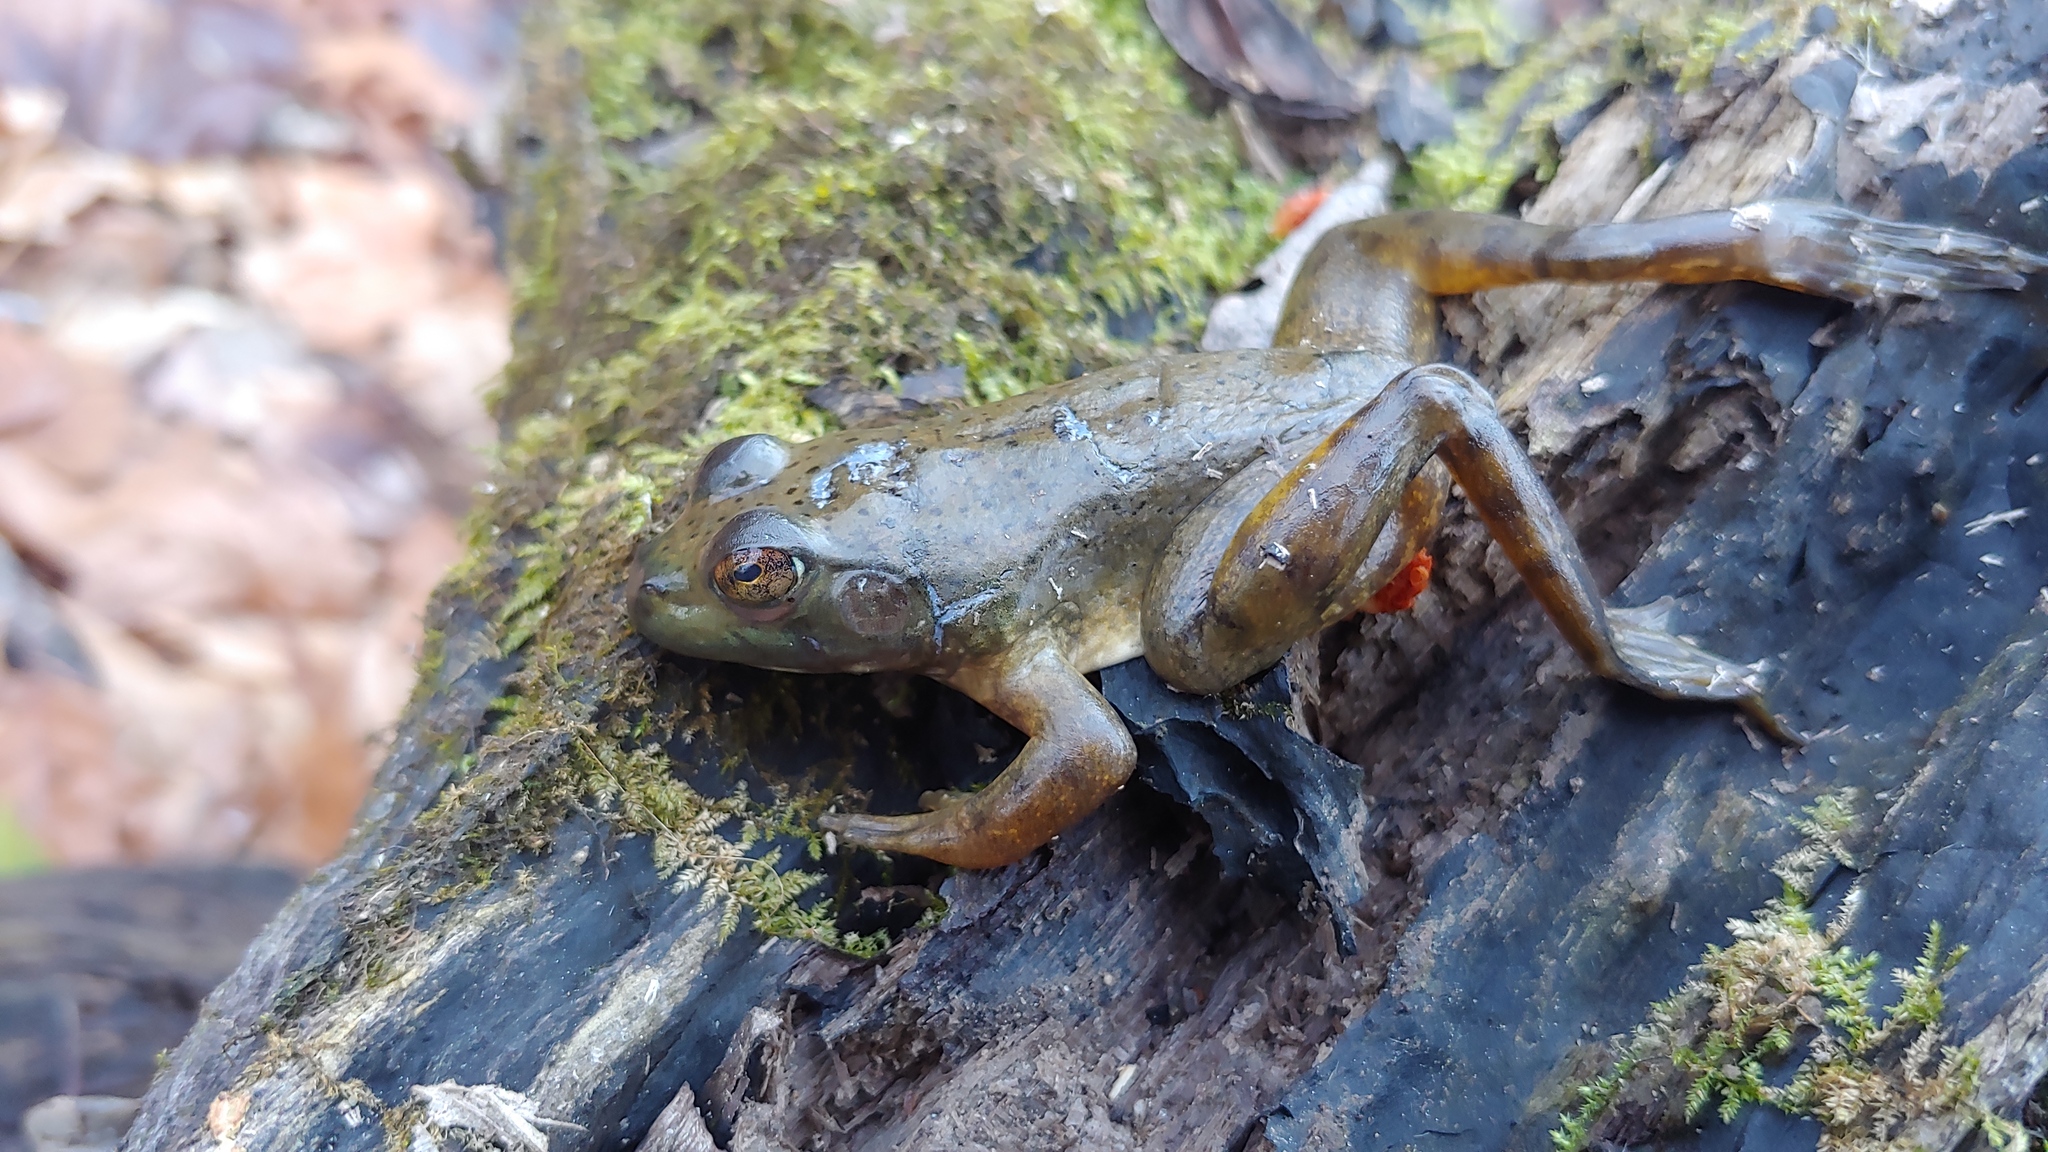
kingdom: Animalia
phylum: Chordata
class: Amphibia
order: Anura
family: Ranidae
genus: Lithobates
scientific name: Lithobates catesbeianus
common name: American bullfrog
